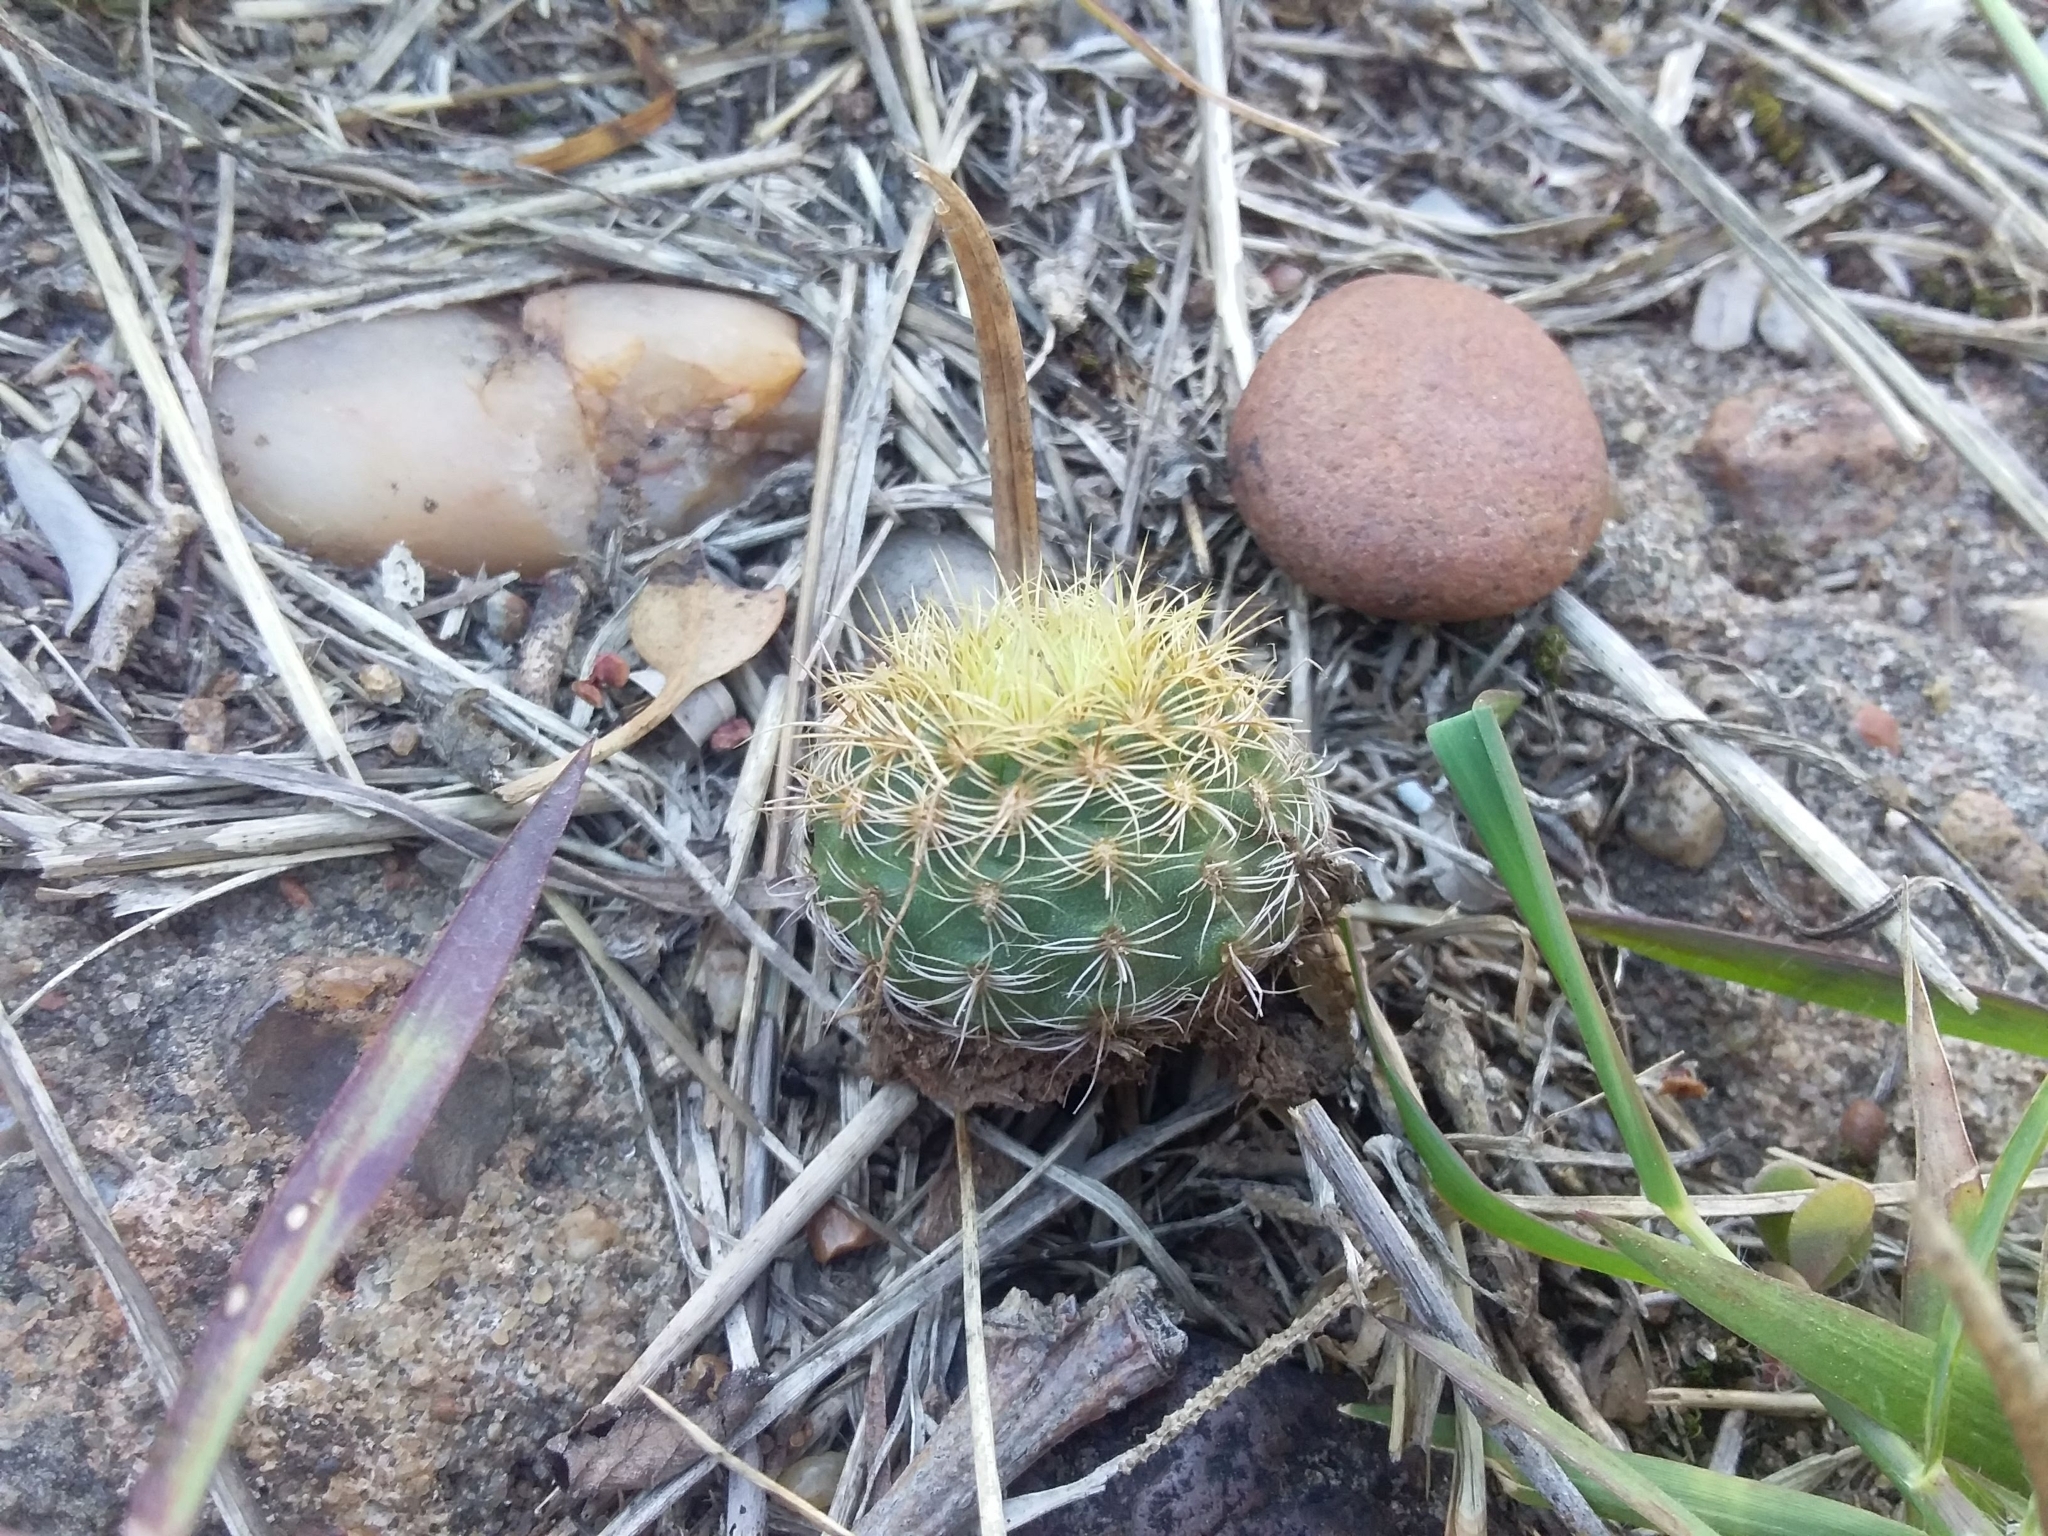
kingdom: Plantae
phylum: Tracheophyta
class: Magnoliopsida
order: Caryophyllales
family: Cactaceae
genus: Frailea
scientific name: Frailea schilinzkyana
